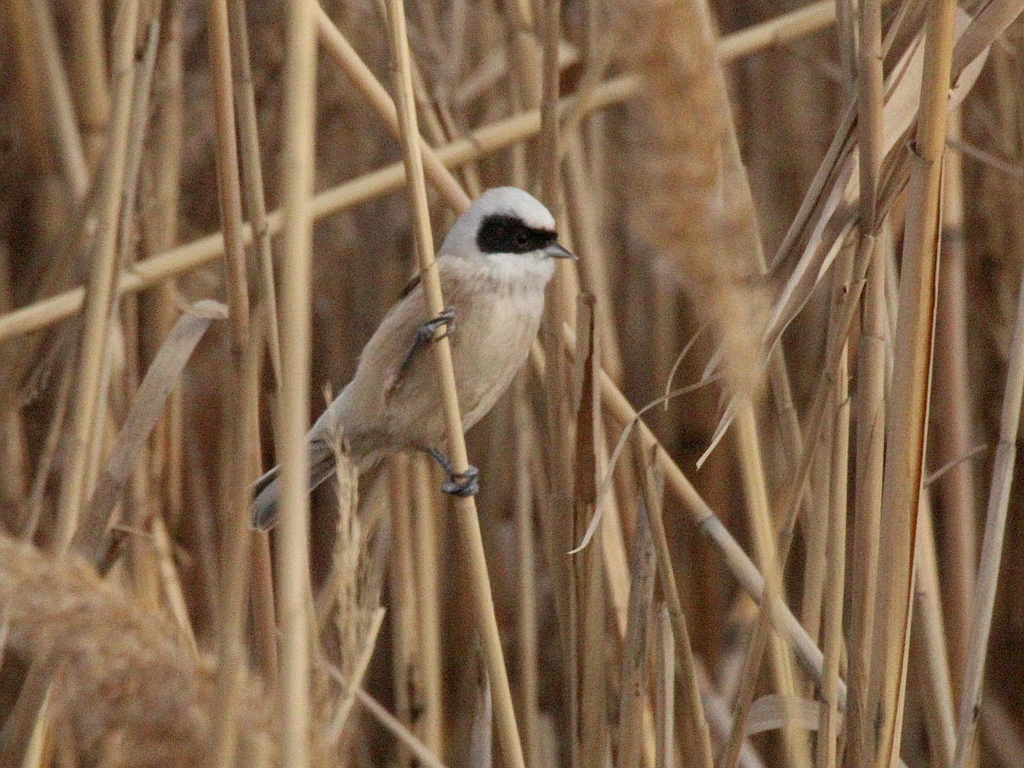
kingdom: Animalia
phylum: Chordata
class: Aves
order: Passeriformes
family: Remizidae
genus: Remiz
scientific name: Remiz pendulinus
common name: Eurasian penduline tit
